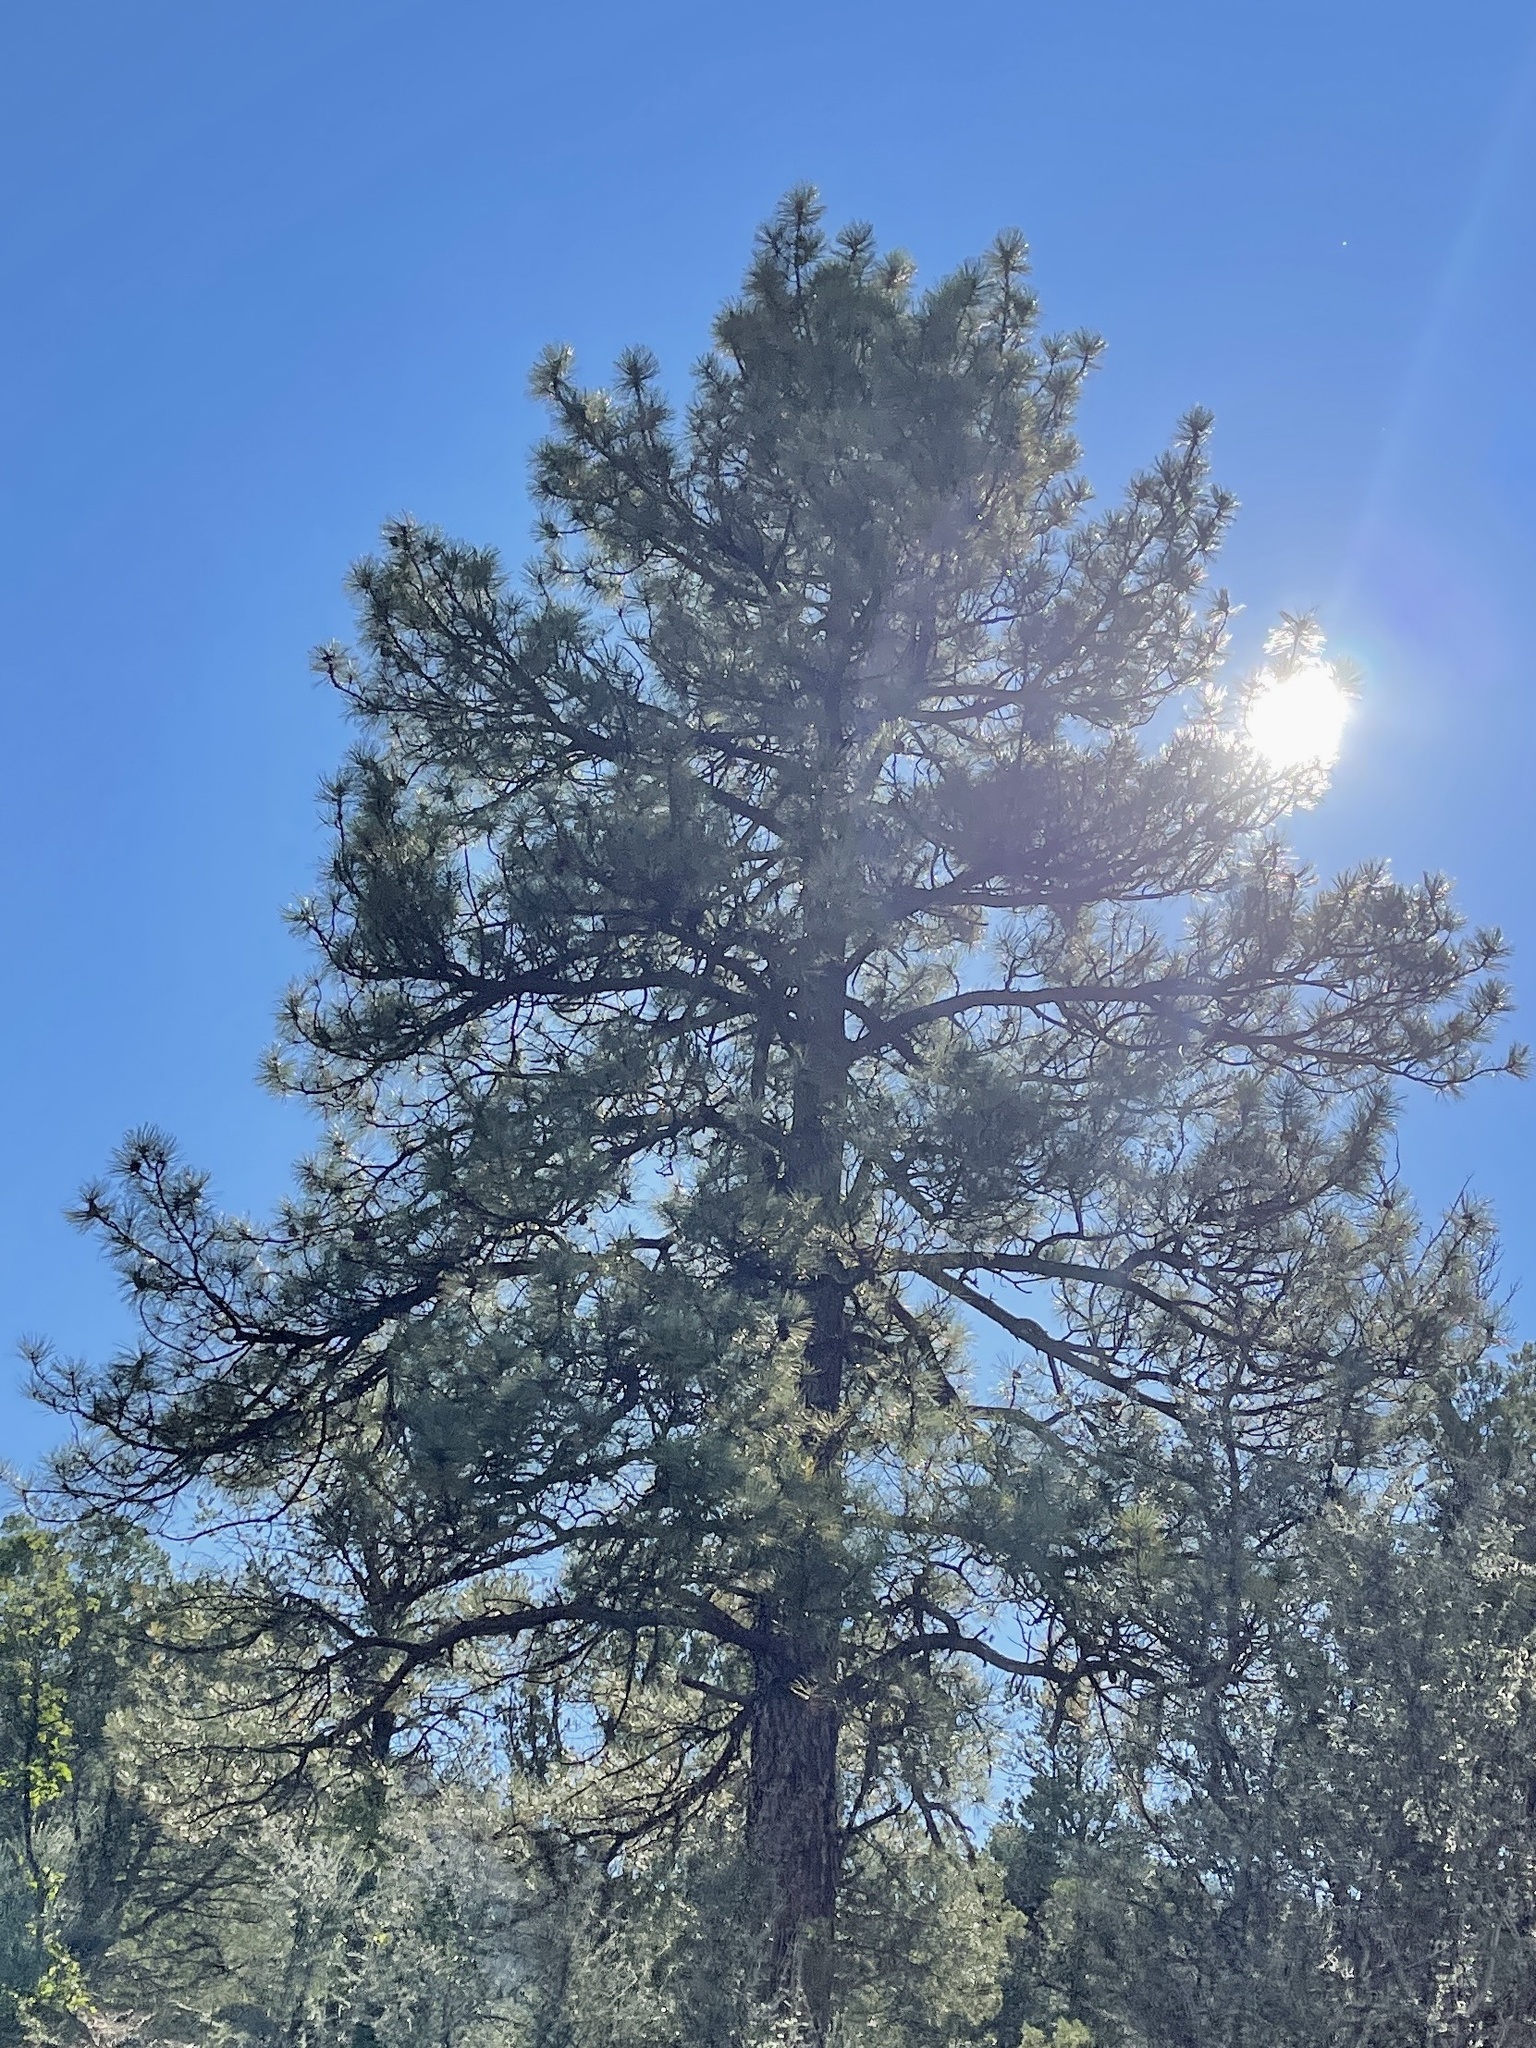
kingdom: Plantae
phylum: Tracheophyta
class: Pinopsida
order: Pinales
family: Pinaceae
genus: Pinus
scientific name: Pinus ponderosa
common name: Western yellow-pine
